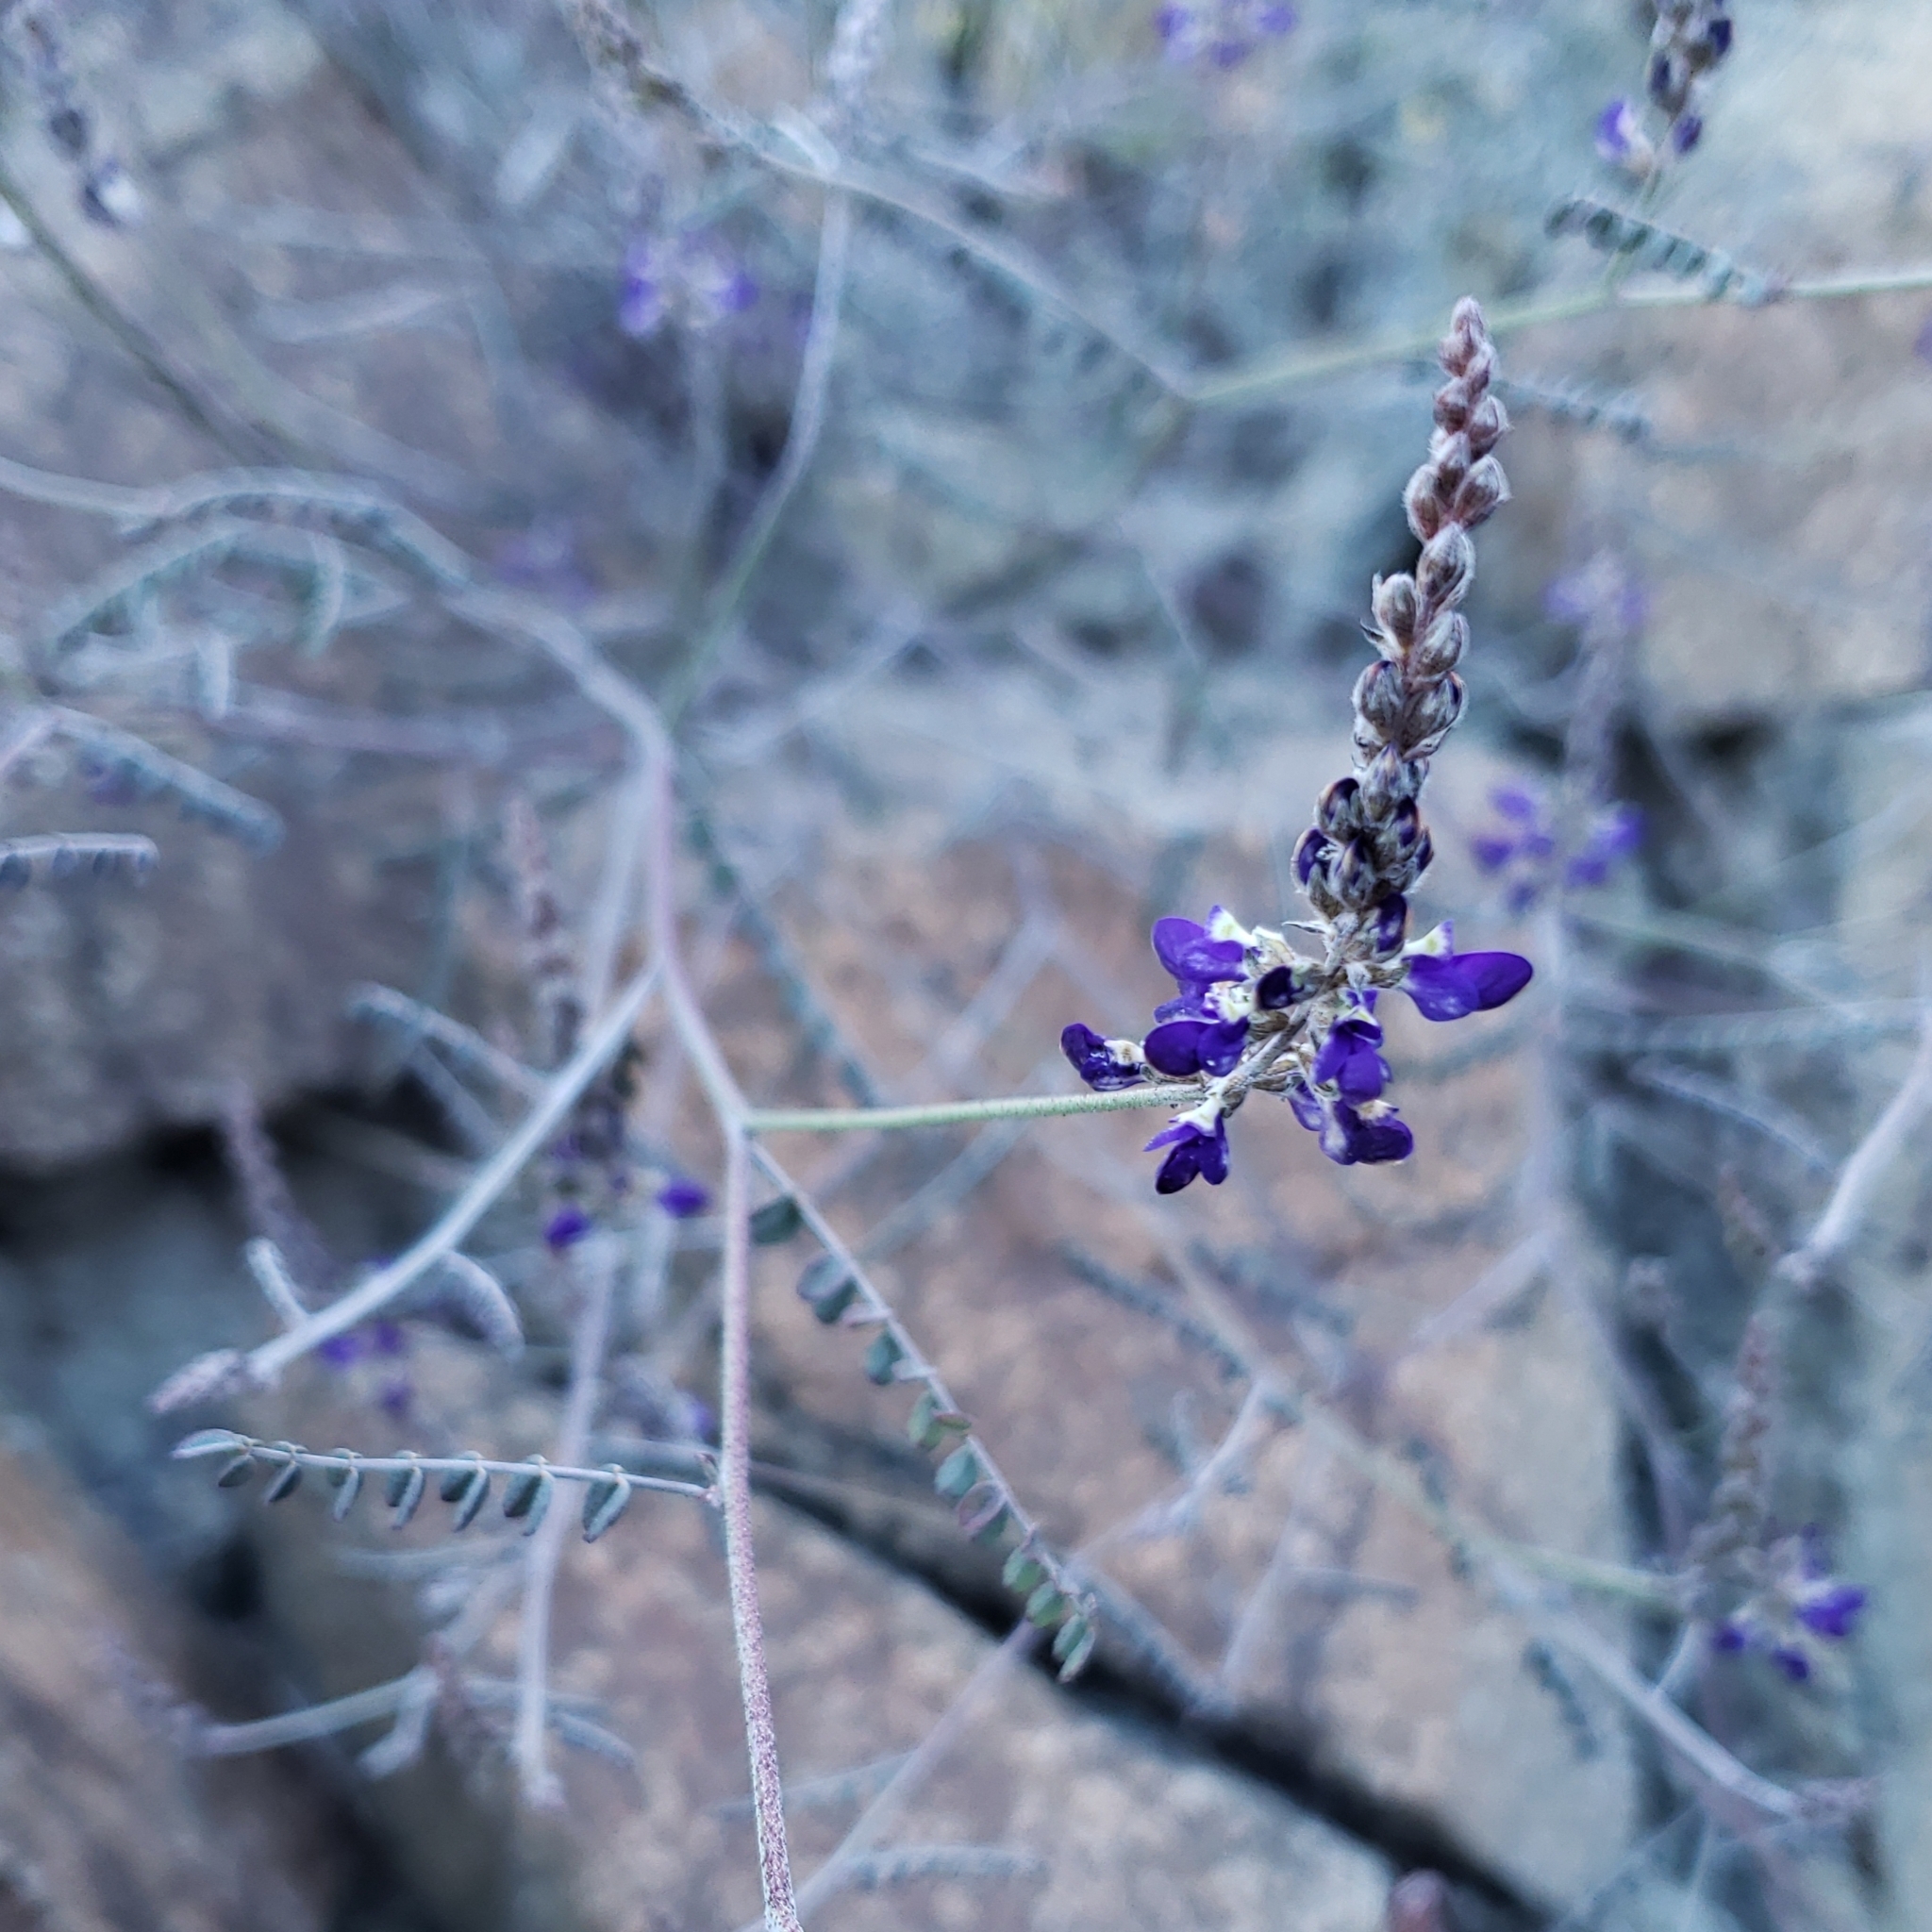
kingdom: Plantae
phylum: Tracheophyta
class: Magnoliopsida
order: Fabales
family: Fabaceae
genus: Marina
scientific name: Marina parryi
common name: Parry's marina
